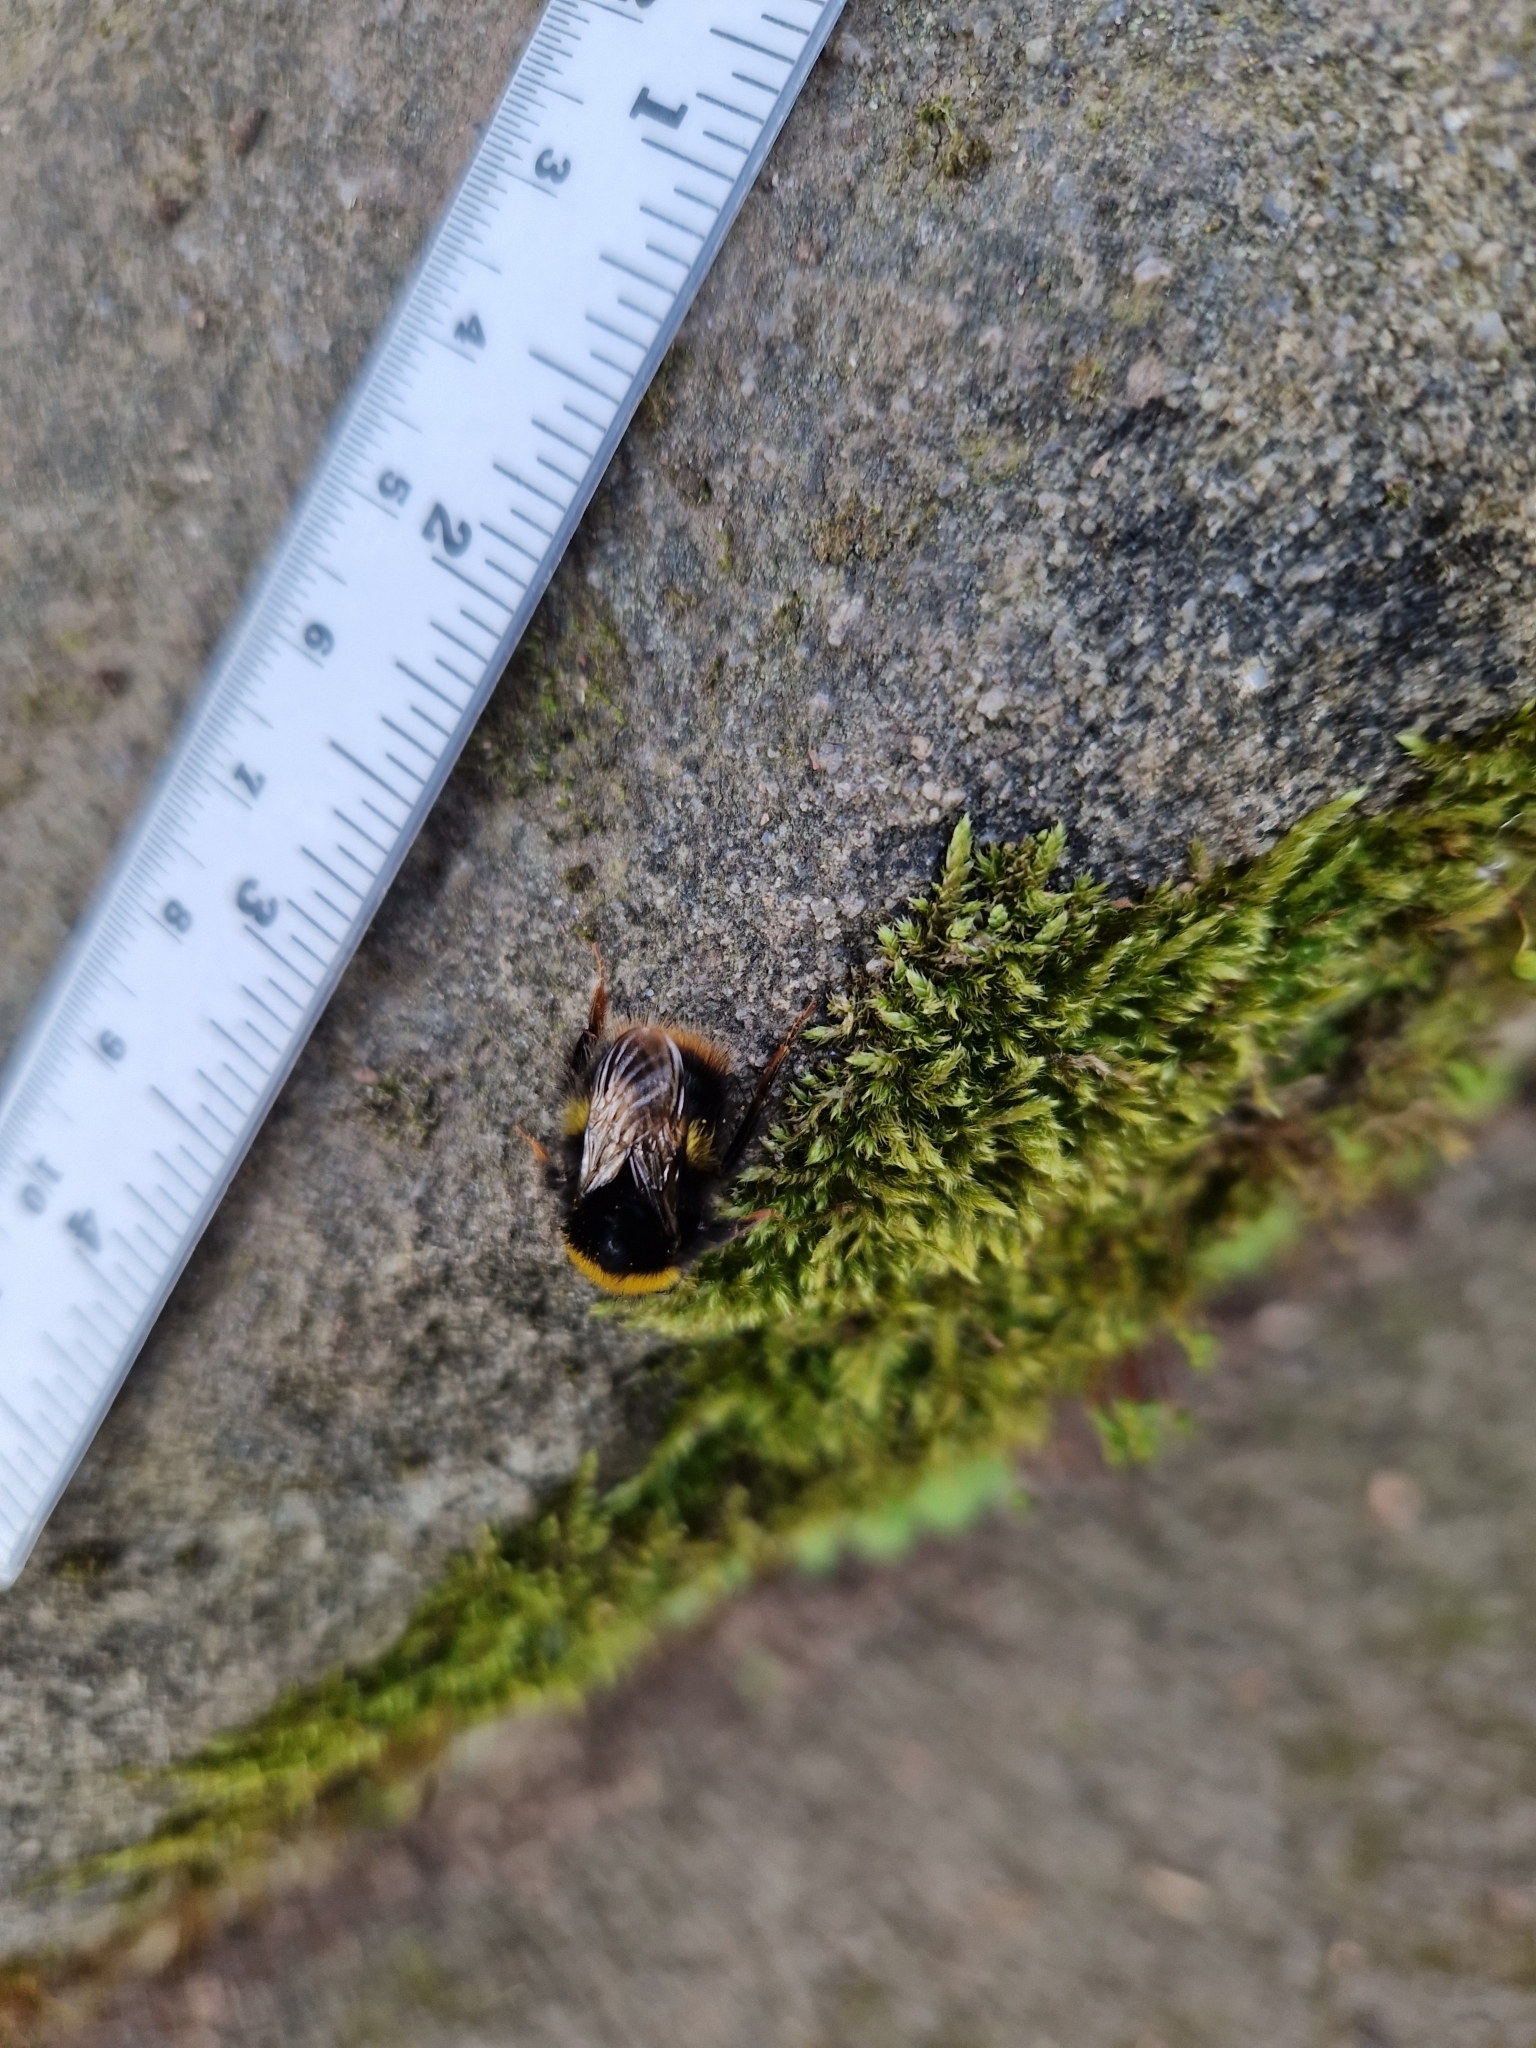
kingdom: Animalia
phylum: Arthropoda
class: Insecta
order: Hymenoptera
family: Apidae
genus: Bombus
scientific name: Bombus terrestris
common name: Buff-tailed bumblebee
